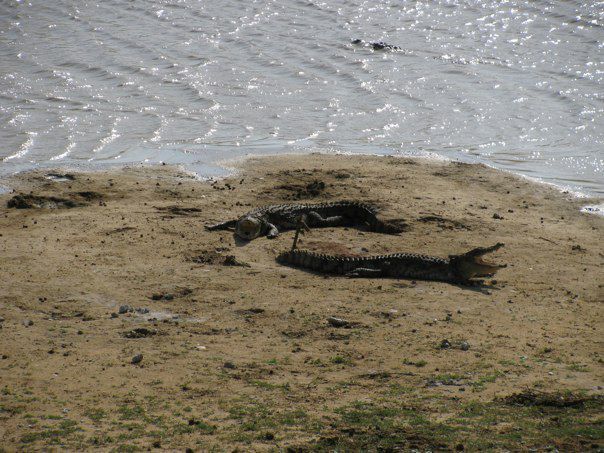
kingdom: Animalia
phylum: Chordata
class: Crocodylia
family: Crocodylidae
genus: Crocodylus
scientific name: Crocodylus palustris
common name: Mugger crocodile
